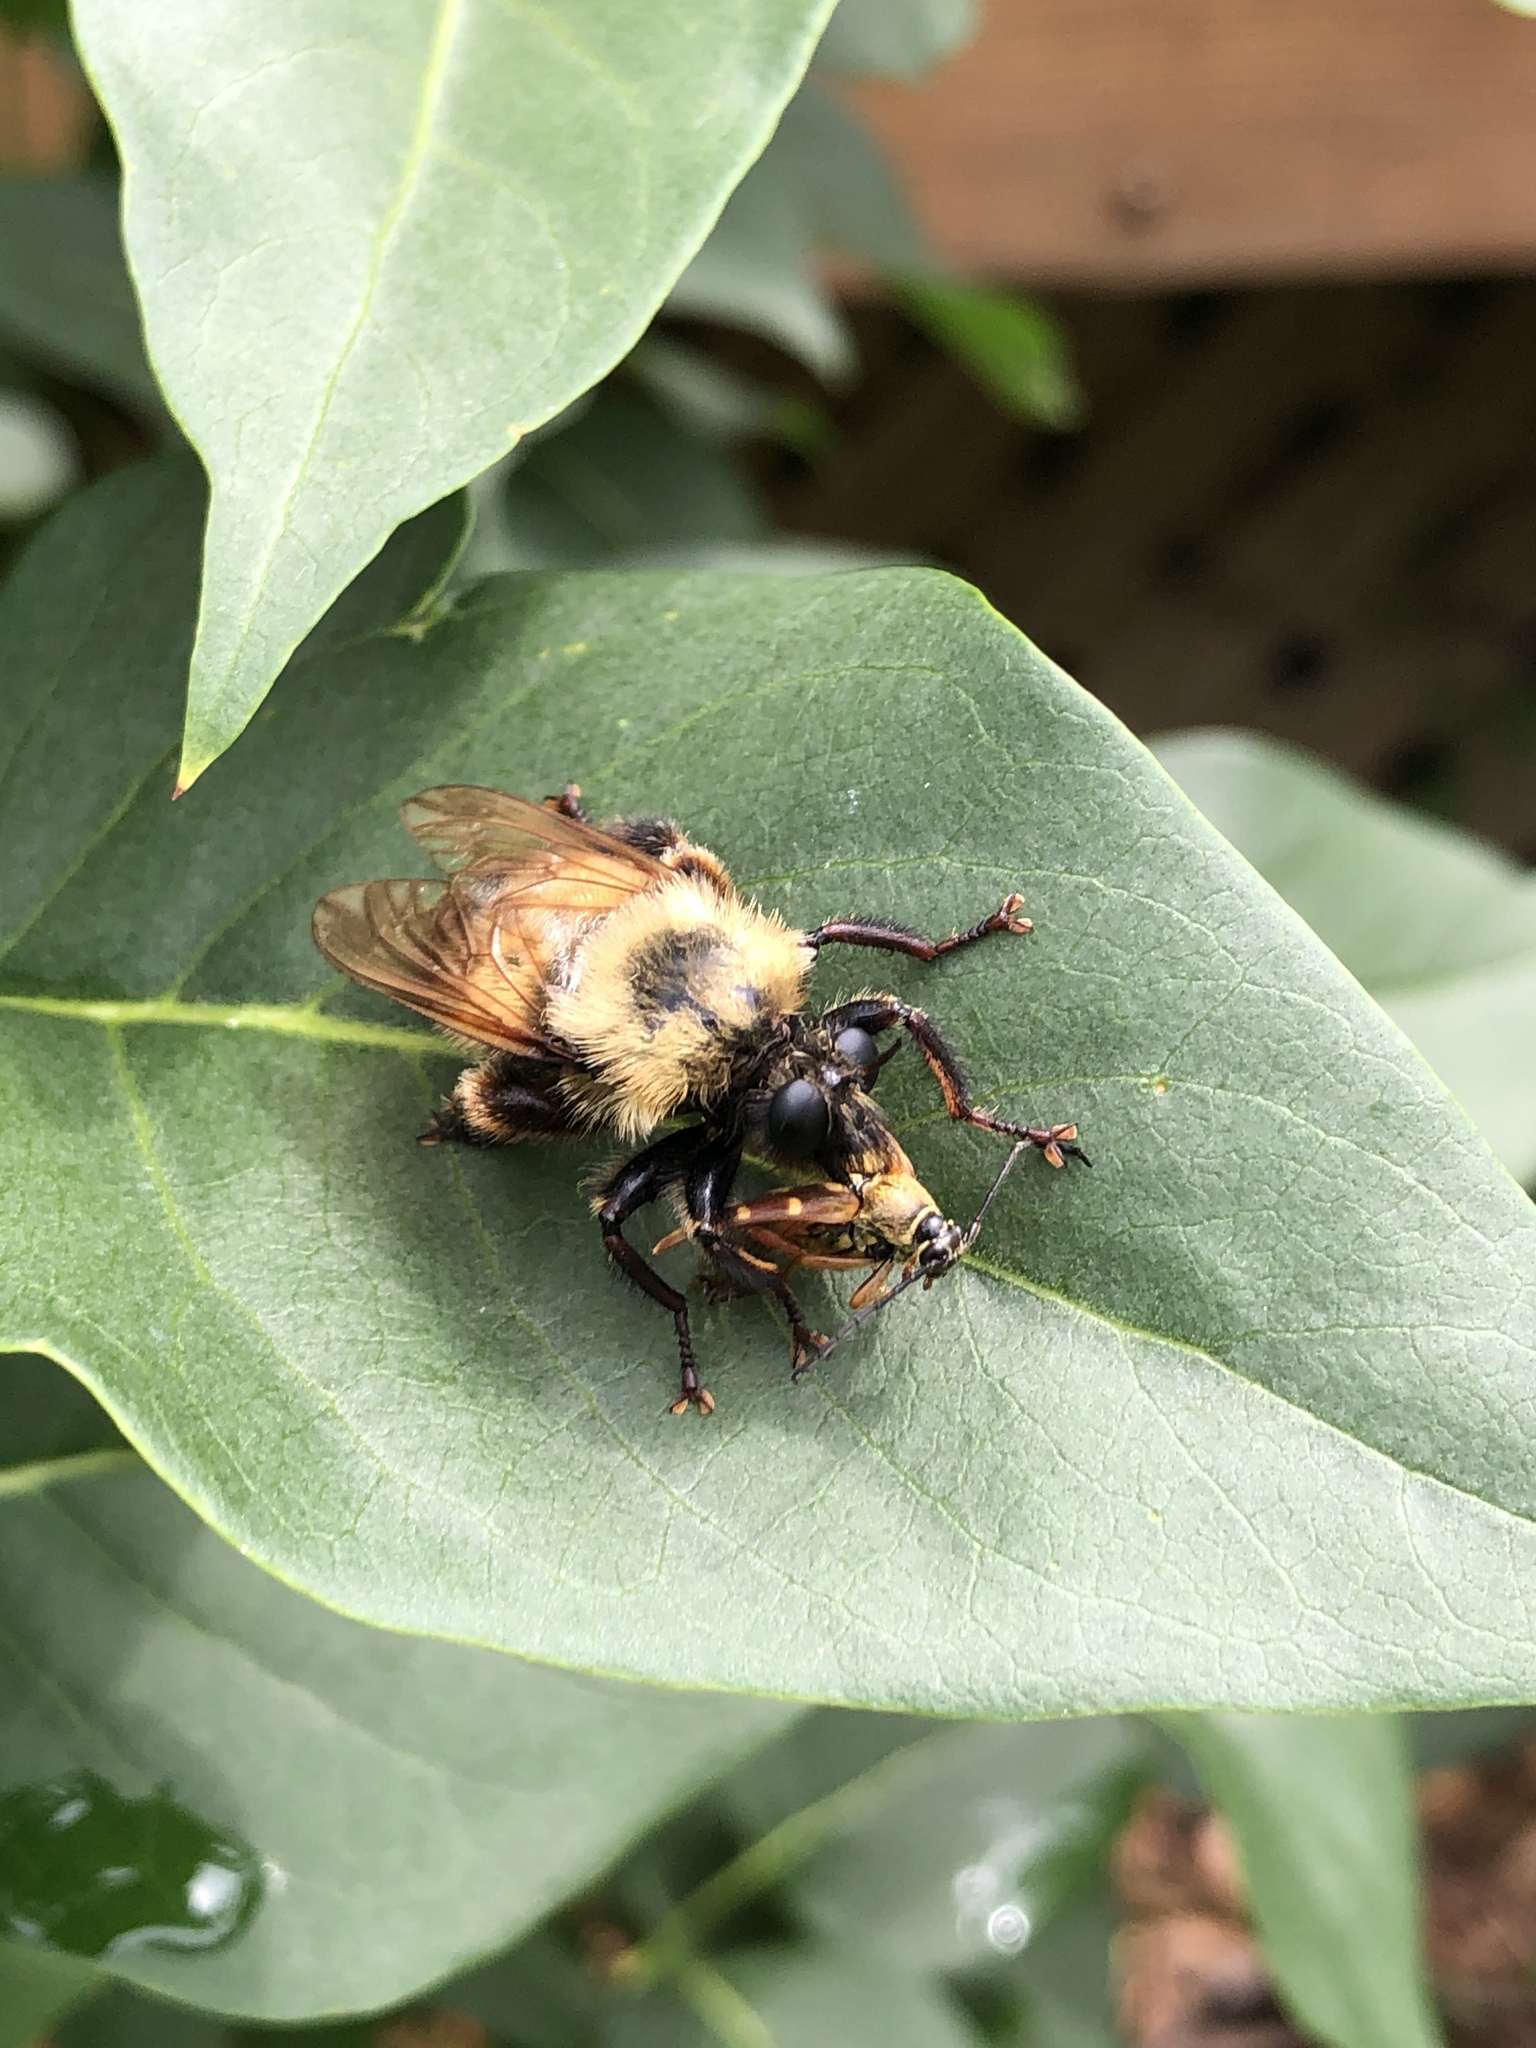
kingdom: Animalia
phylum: Arthropoda
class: Insecta
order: Diptera
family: Asilidae
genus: Laphria
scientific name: Laphria thoracica
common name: Bumble bee mimic robber fly
